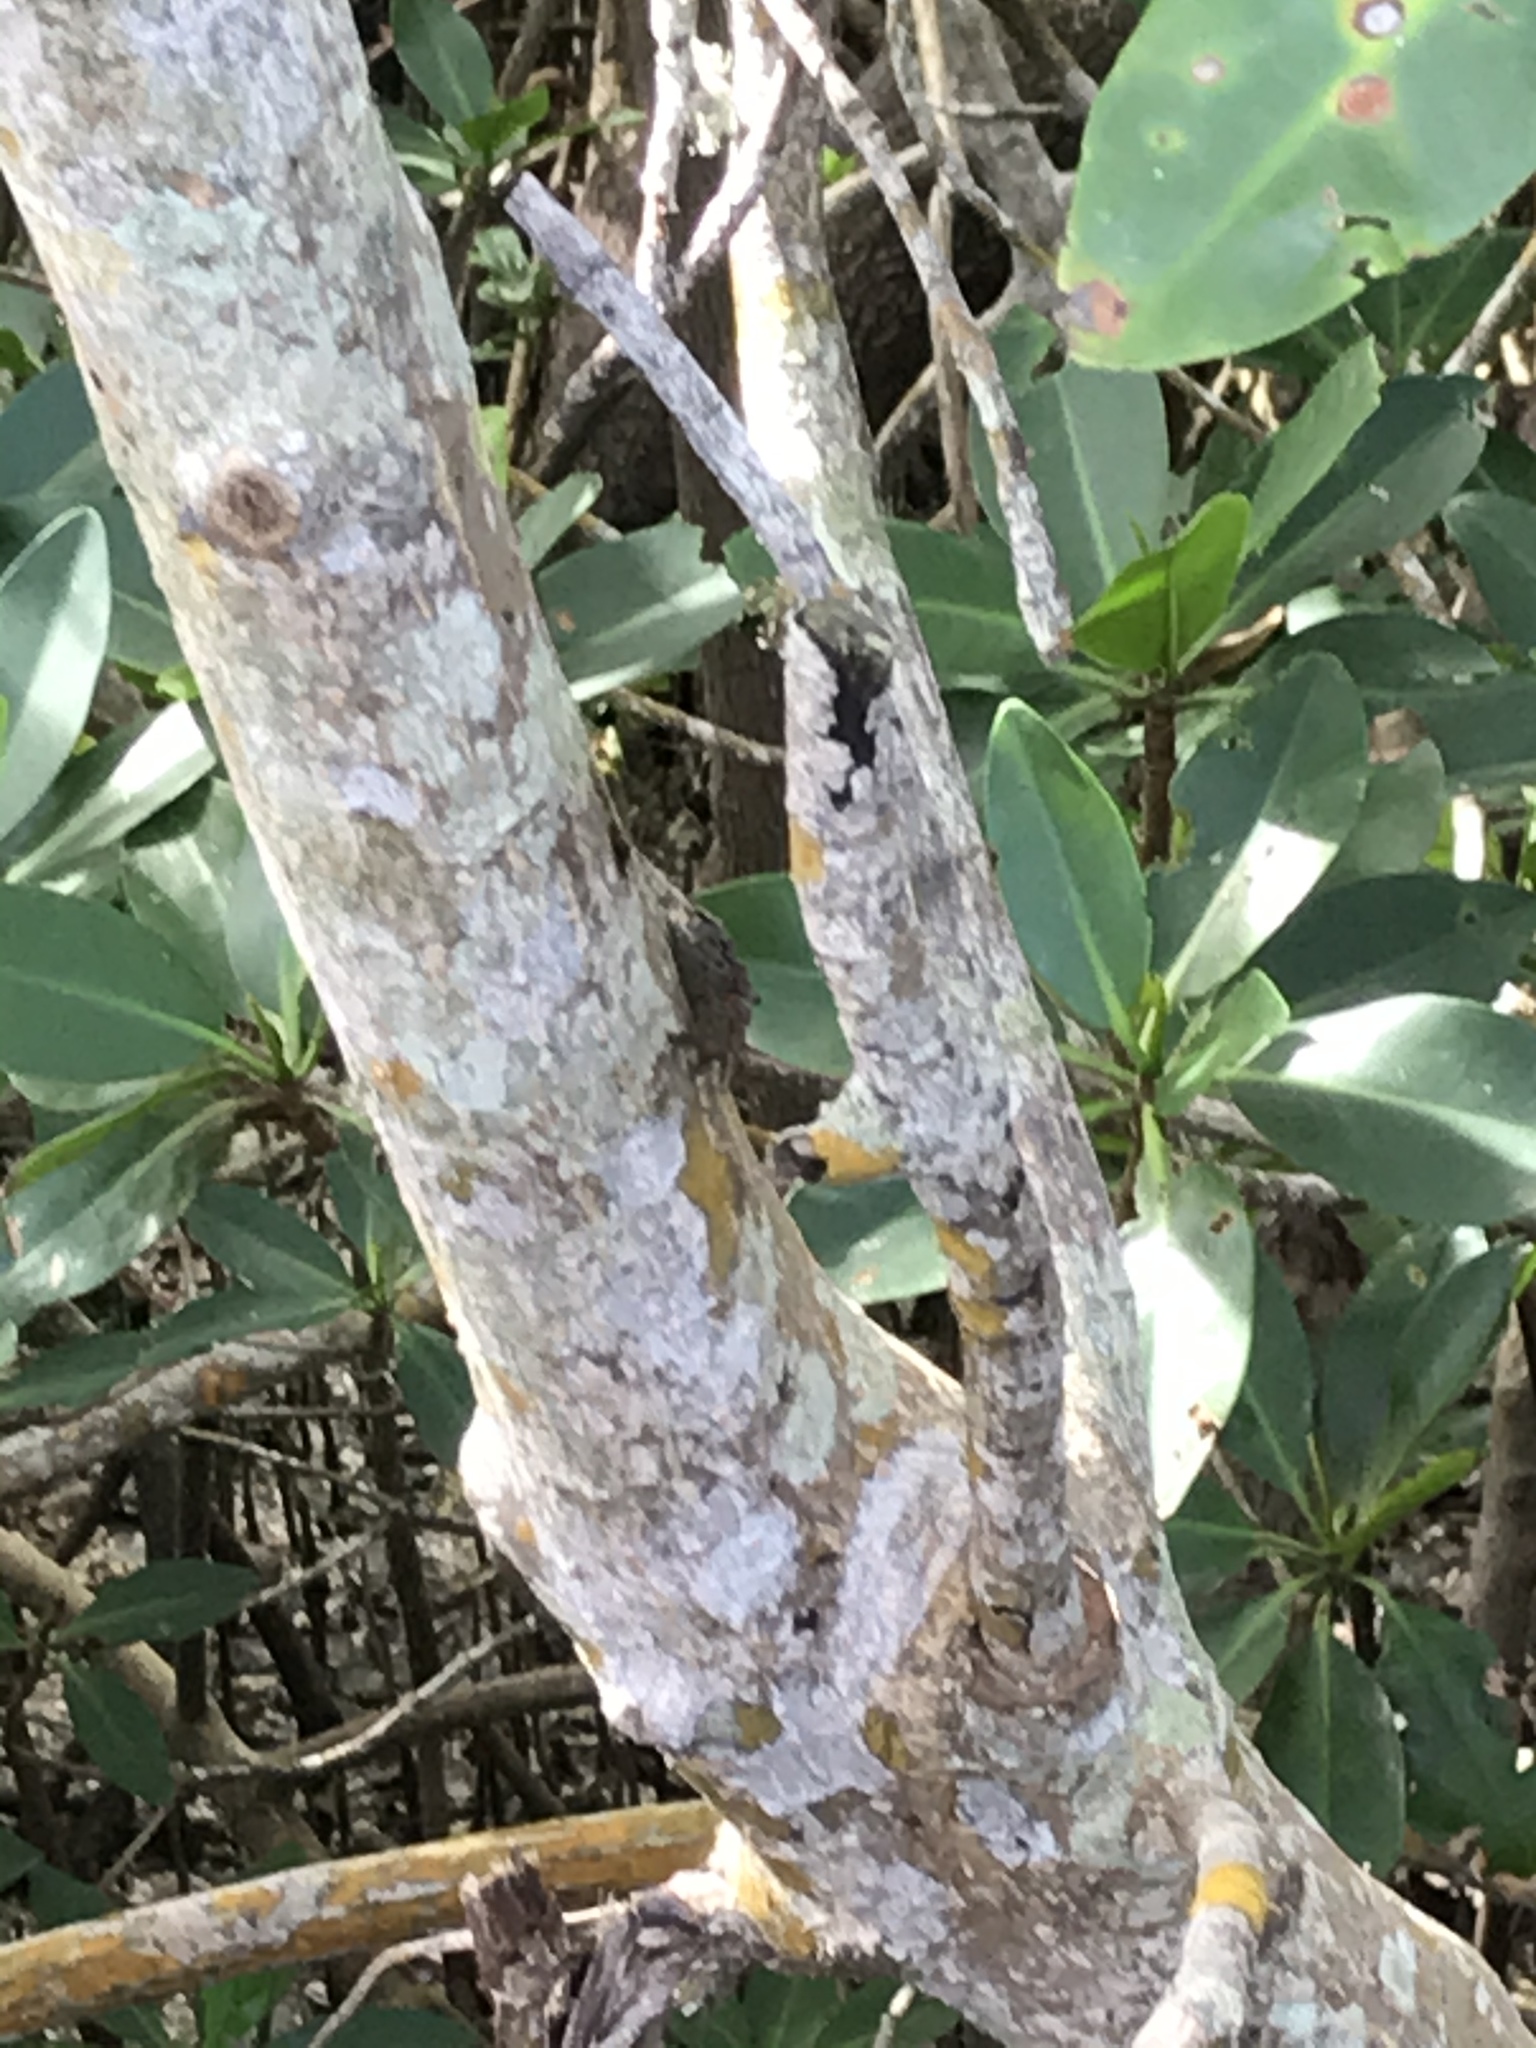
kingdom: Animalia
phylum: Arthropoda
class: Malacostraca
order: Decapoda
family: Sesarmidae
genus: Aratus
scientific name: Aratus pisonii
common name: Mangrove crab
